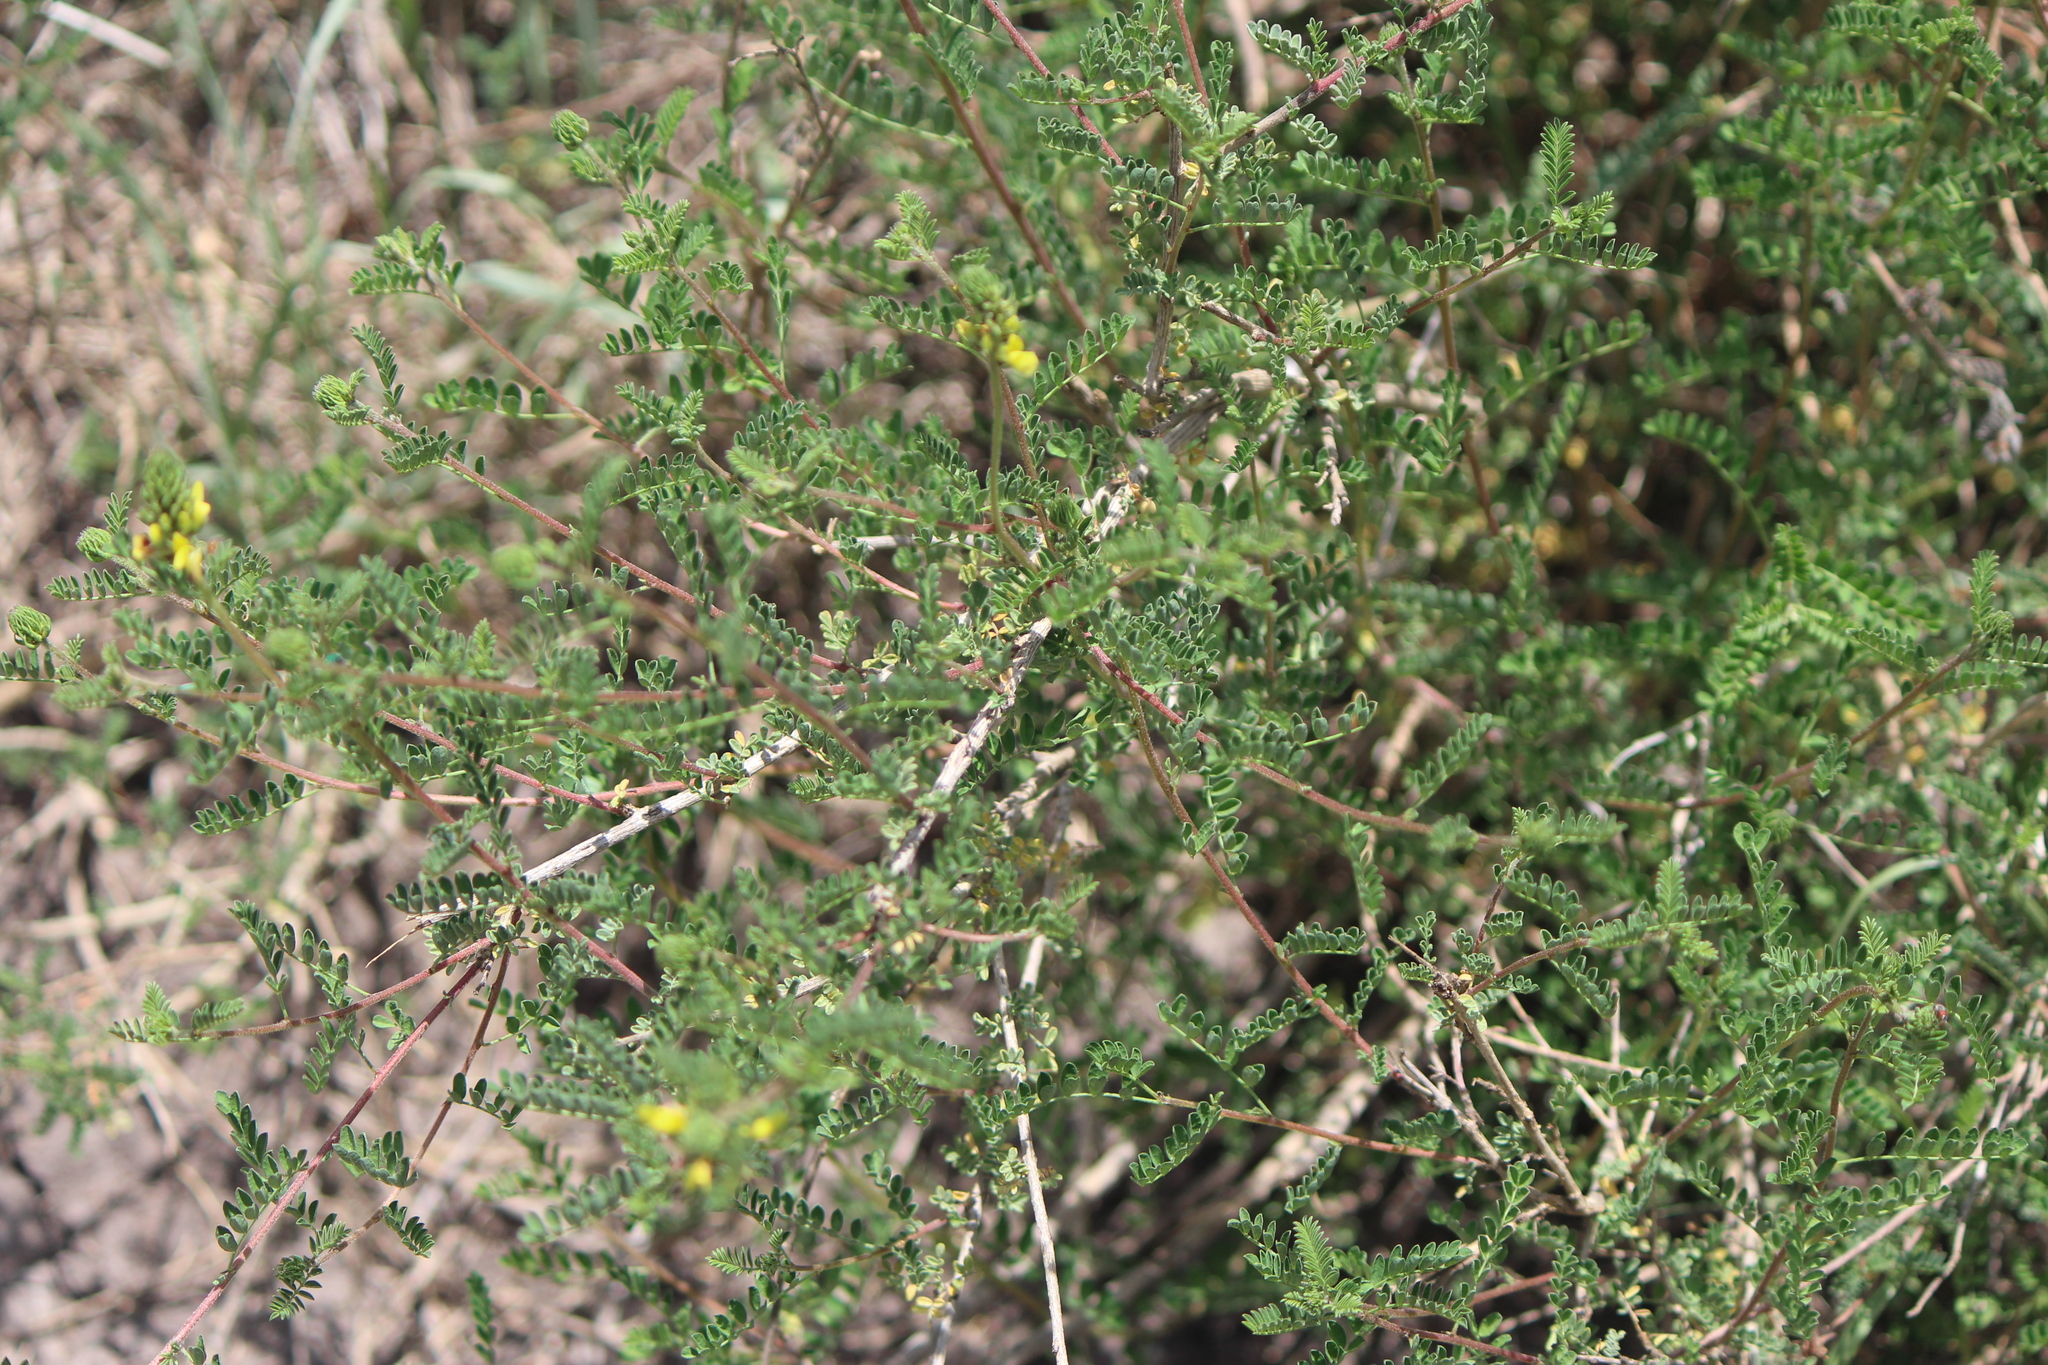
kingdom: Plantae
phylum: Tracheophyta
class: Magnoliopsida
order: Fabales
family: Fabaceae
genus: Dalea
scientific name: Dalea lutea
